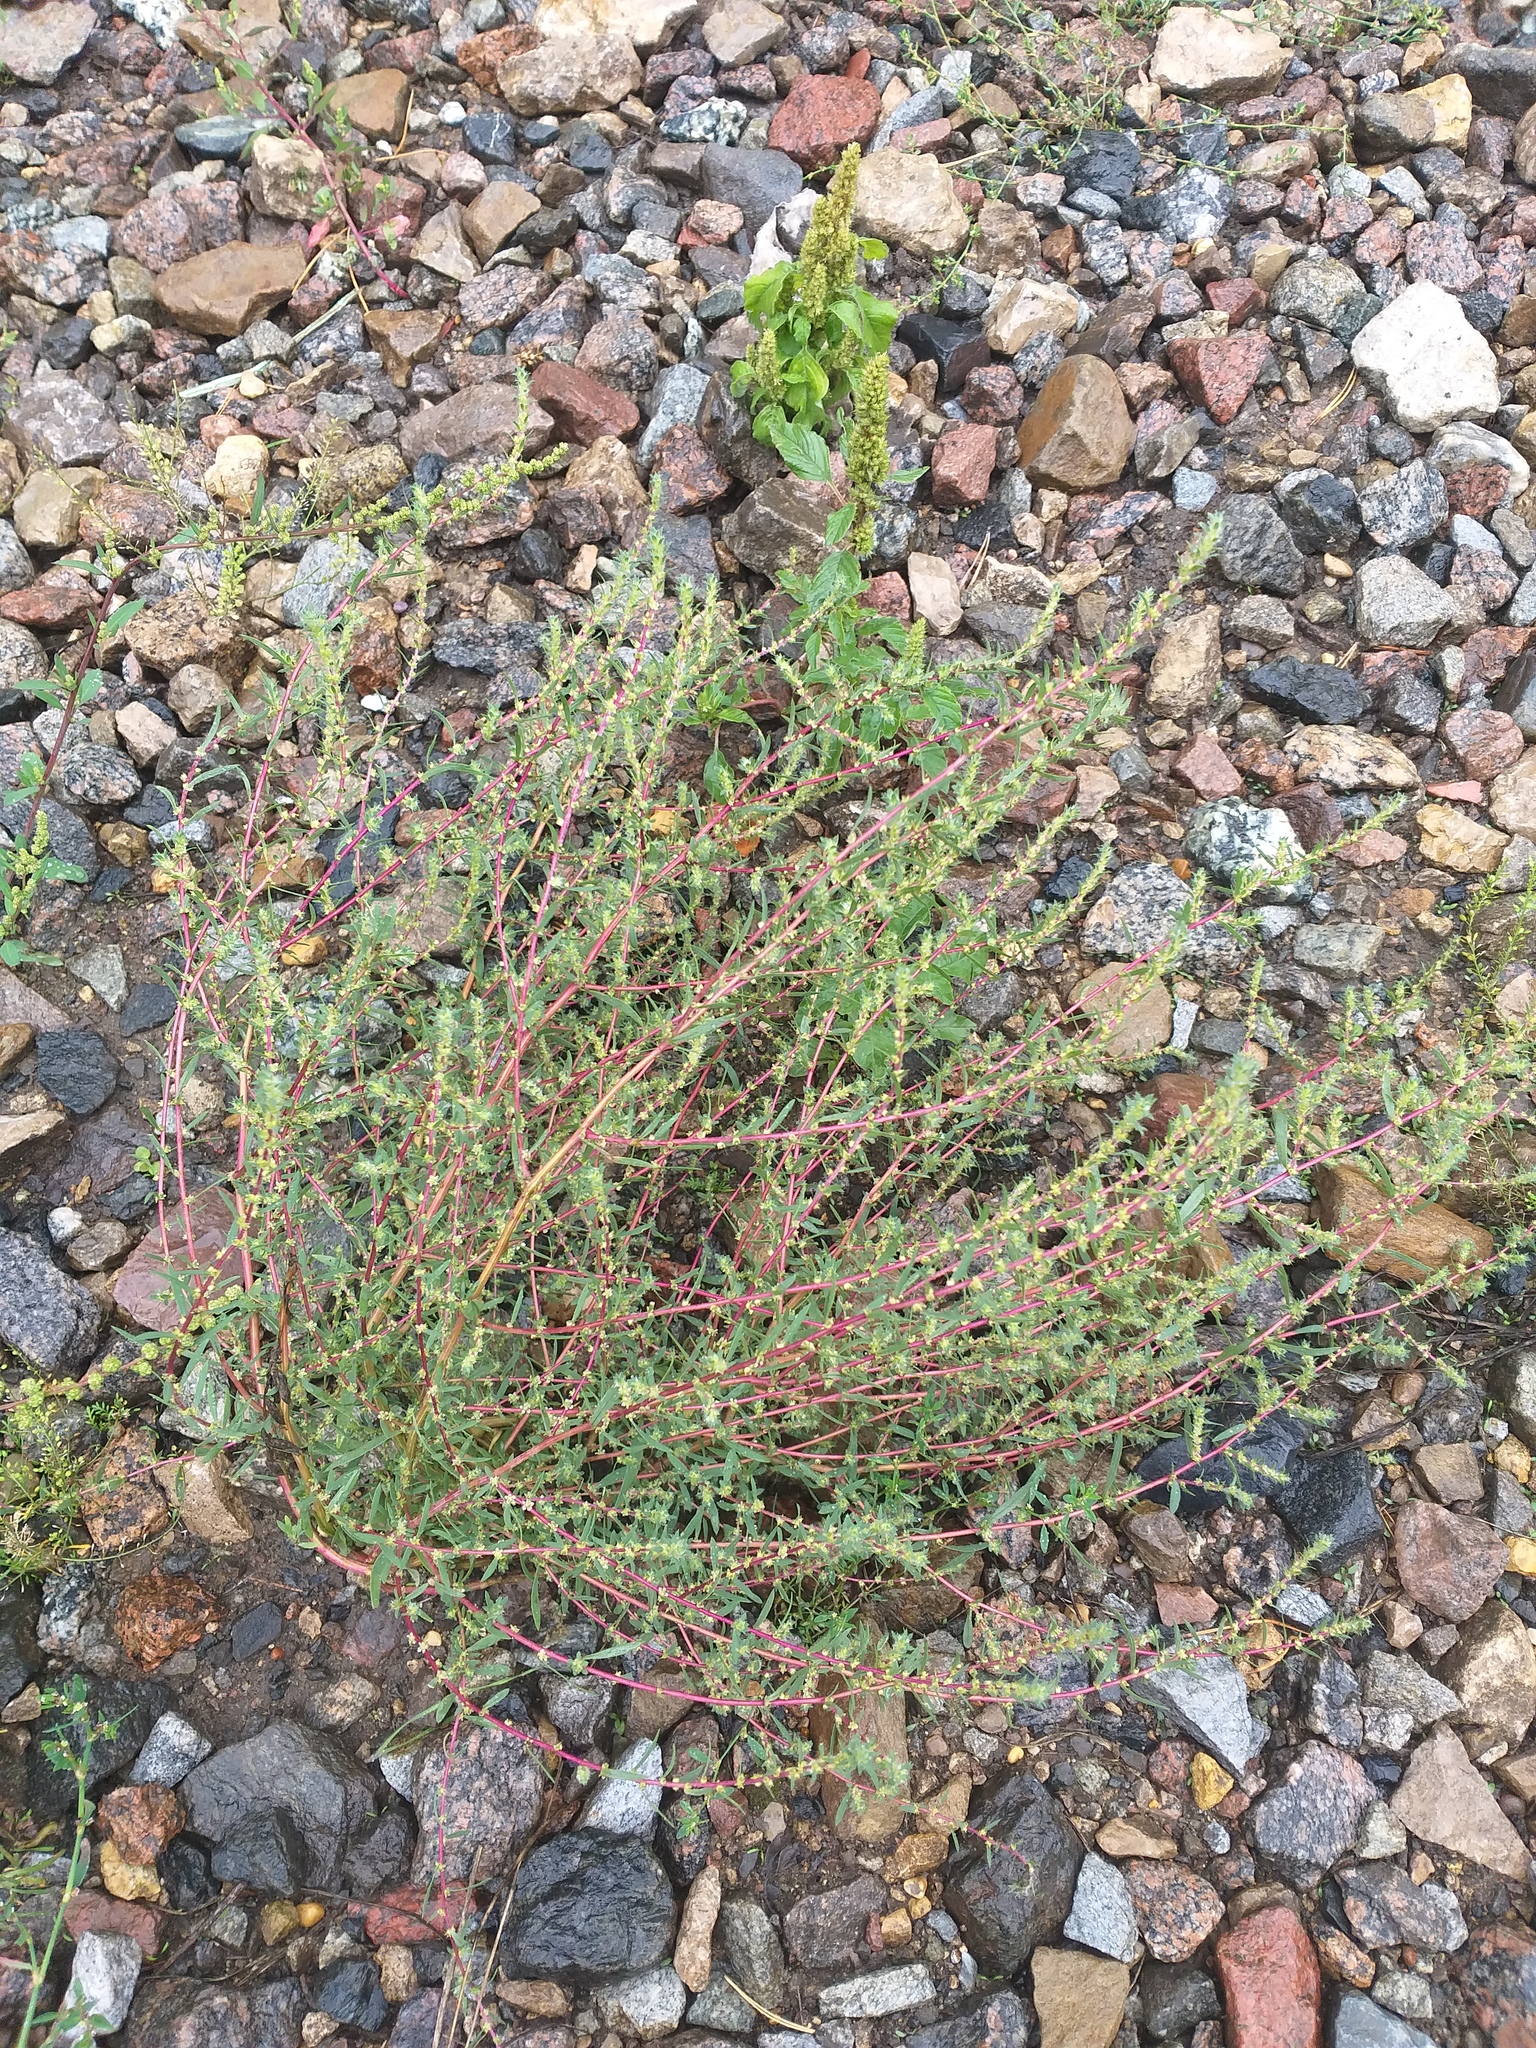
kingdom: Plantae
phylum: Tracheophyta
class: Magnoliopsida
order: Caryophyllales
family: Amaranthaceae
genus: Bassia
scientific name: Bassia scoparia
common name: Belvedere
